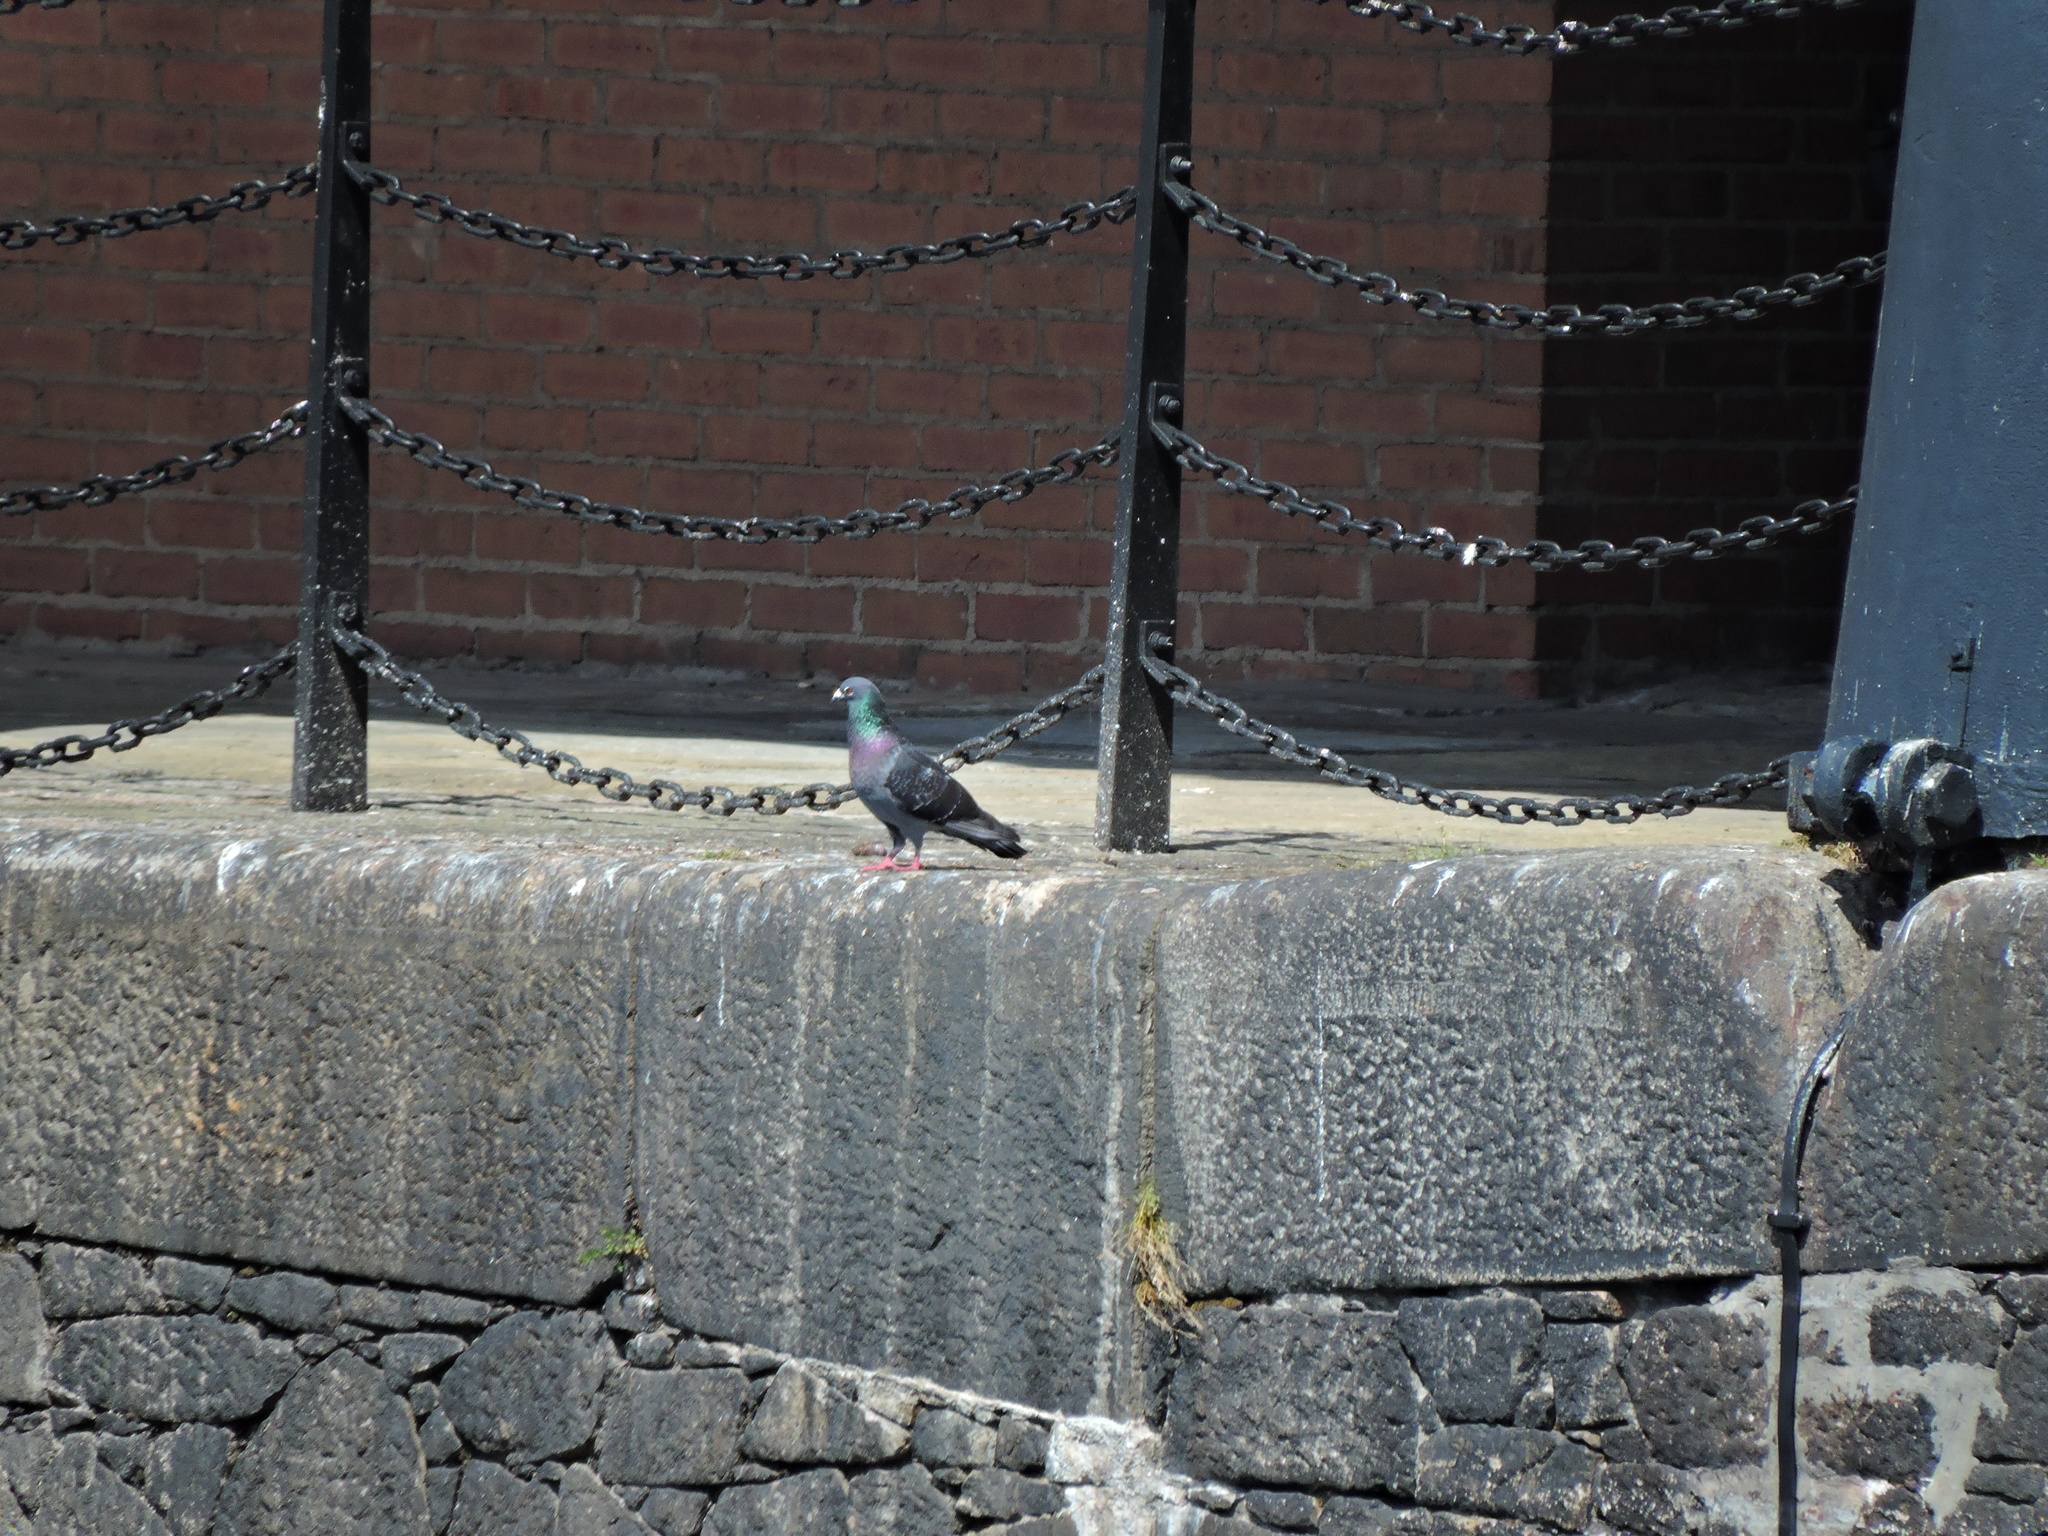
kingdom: Animalia
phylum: Chordata
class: Aves
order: Columbiformes
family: Columbidae
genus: Columba
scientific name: Columba livia
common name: Rock pigeon
